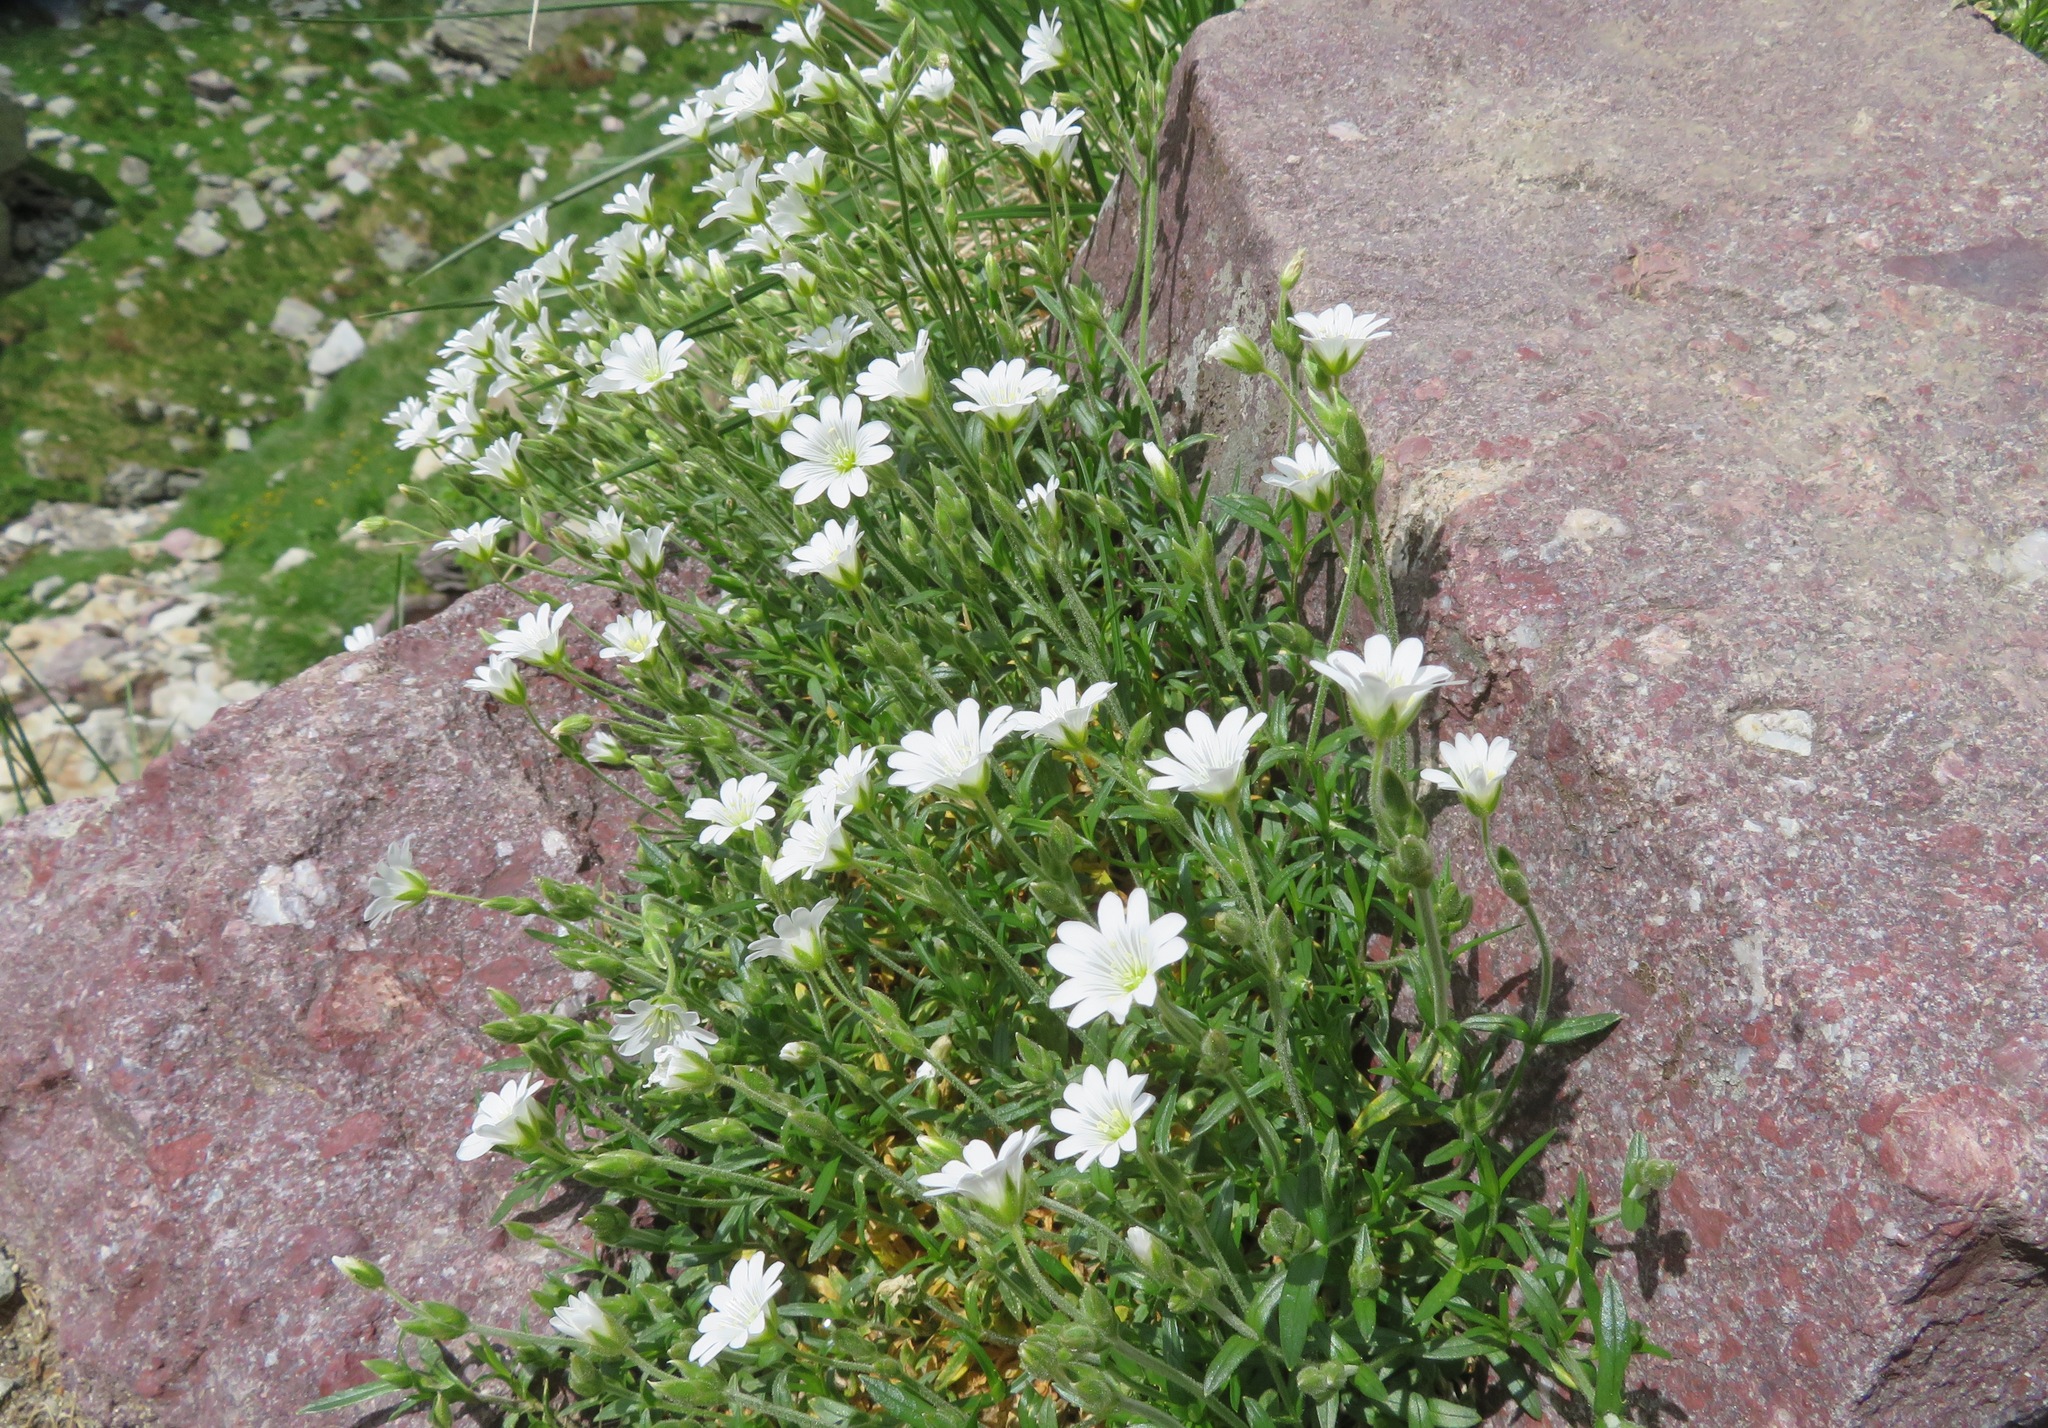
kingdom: Plantae
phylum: Tracheophyta
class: Magnoliopsida
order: Caryophyllales
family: Caryophyllaceae
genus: Cerastium
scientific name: Cerastium arvense
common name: Field mouse-ear
